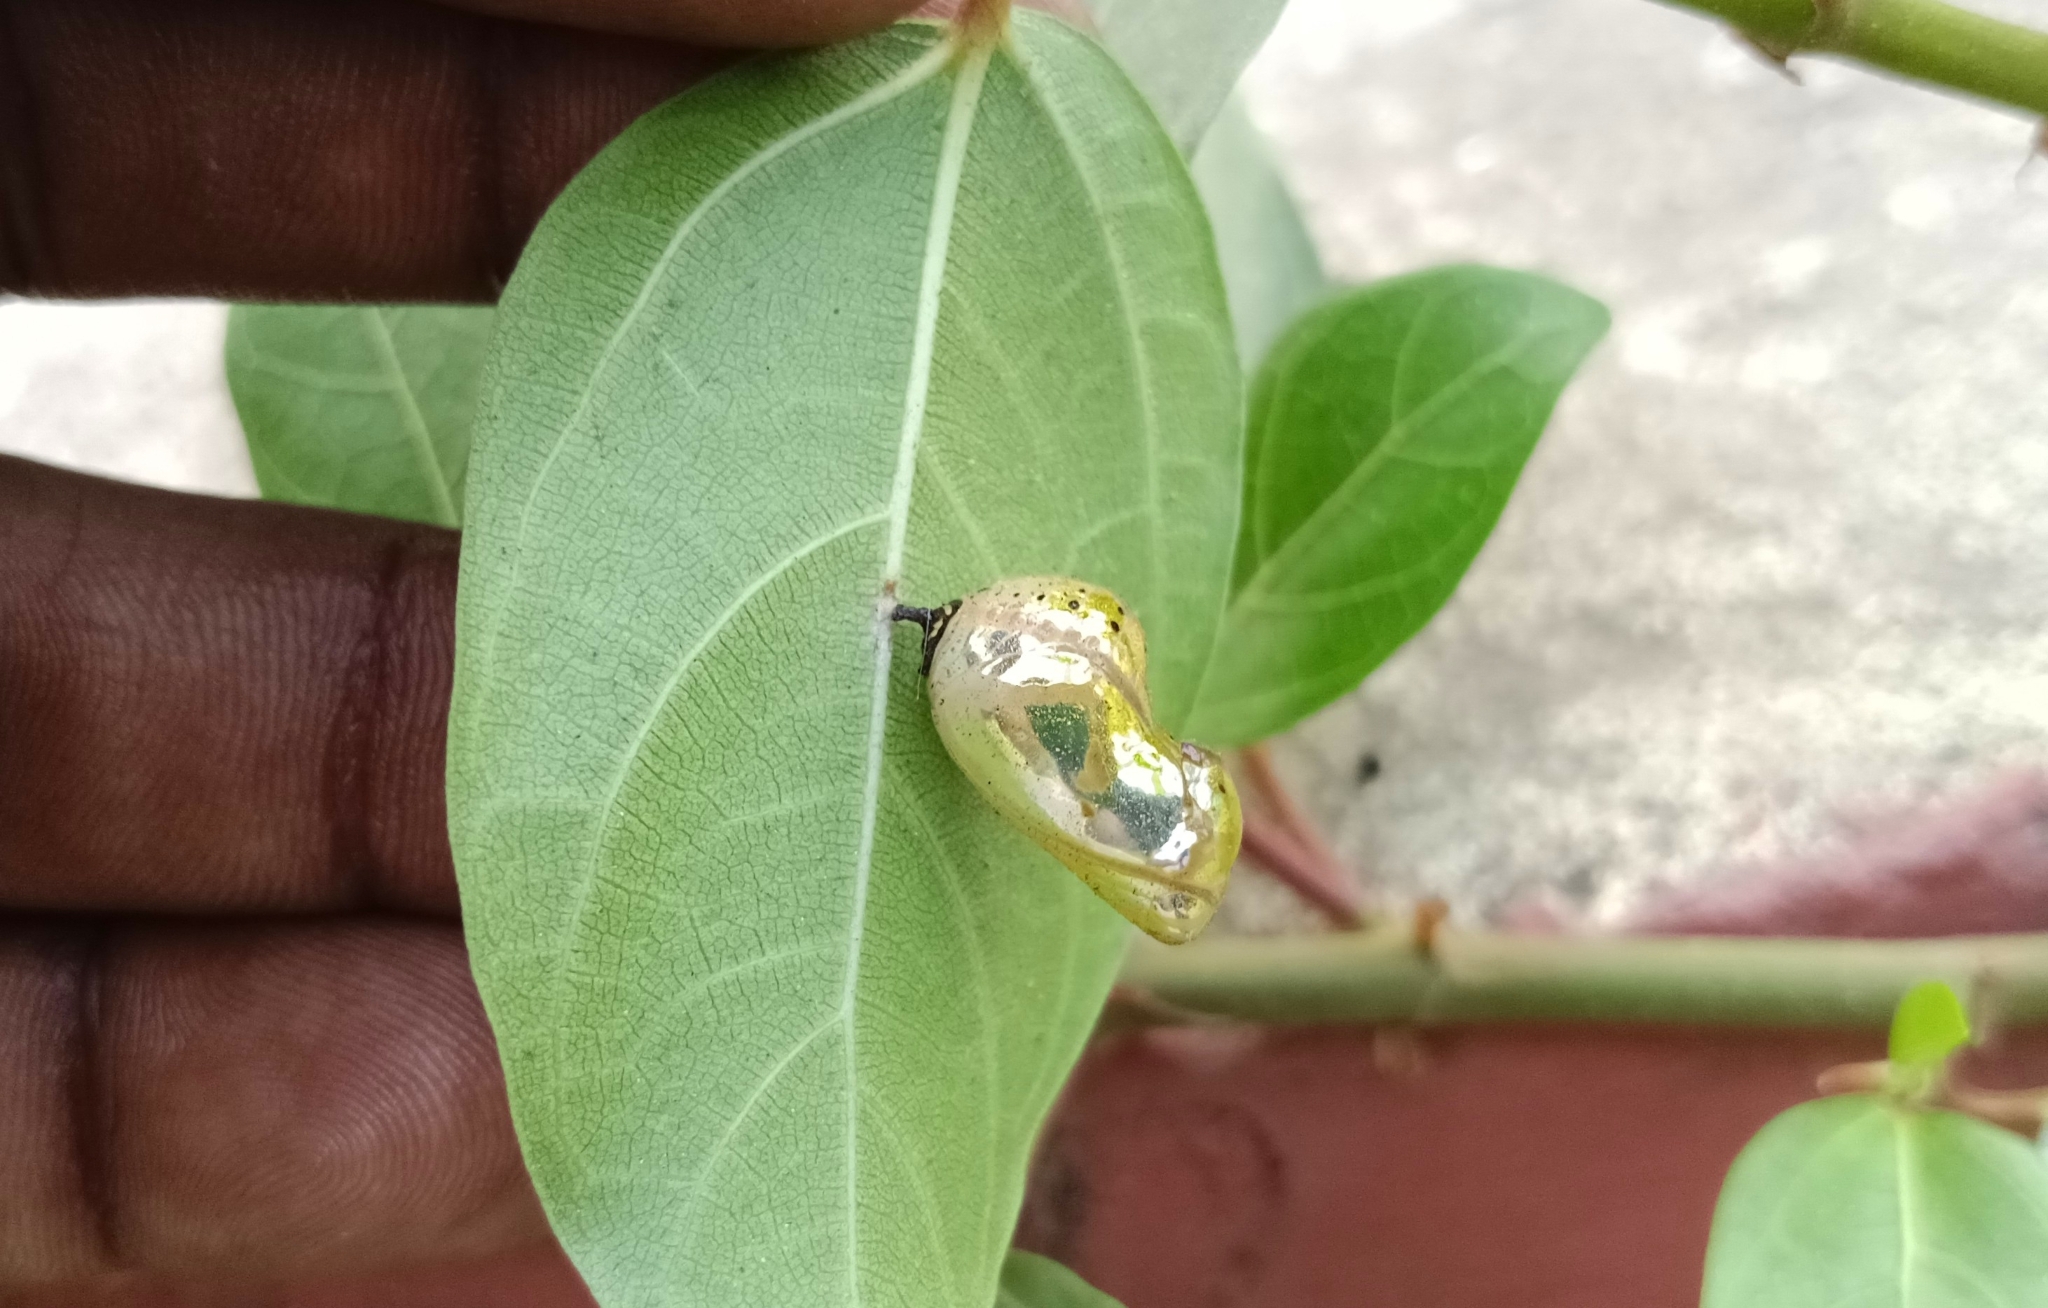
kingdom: Animalia
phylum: Arthropoda
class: Insecta
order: Lepidoptera
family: Nymphalidae
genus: Euploea
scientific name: Euploea core
